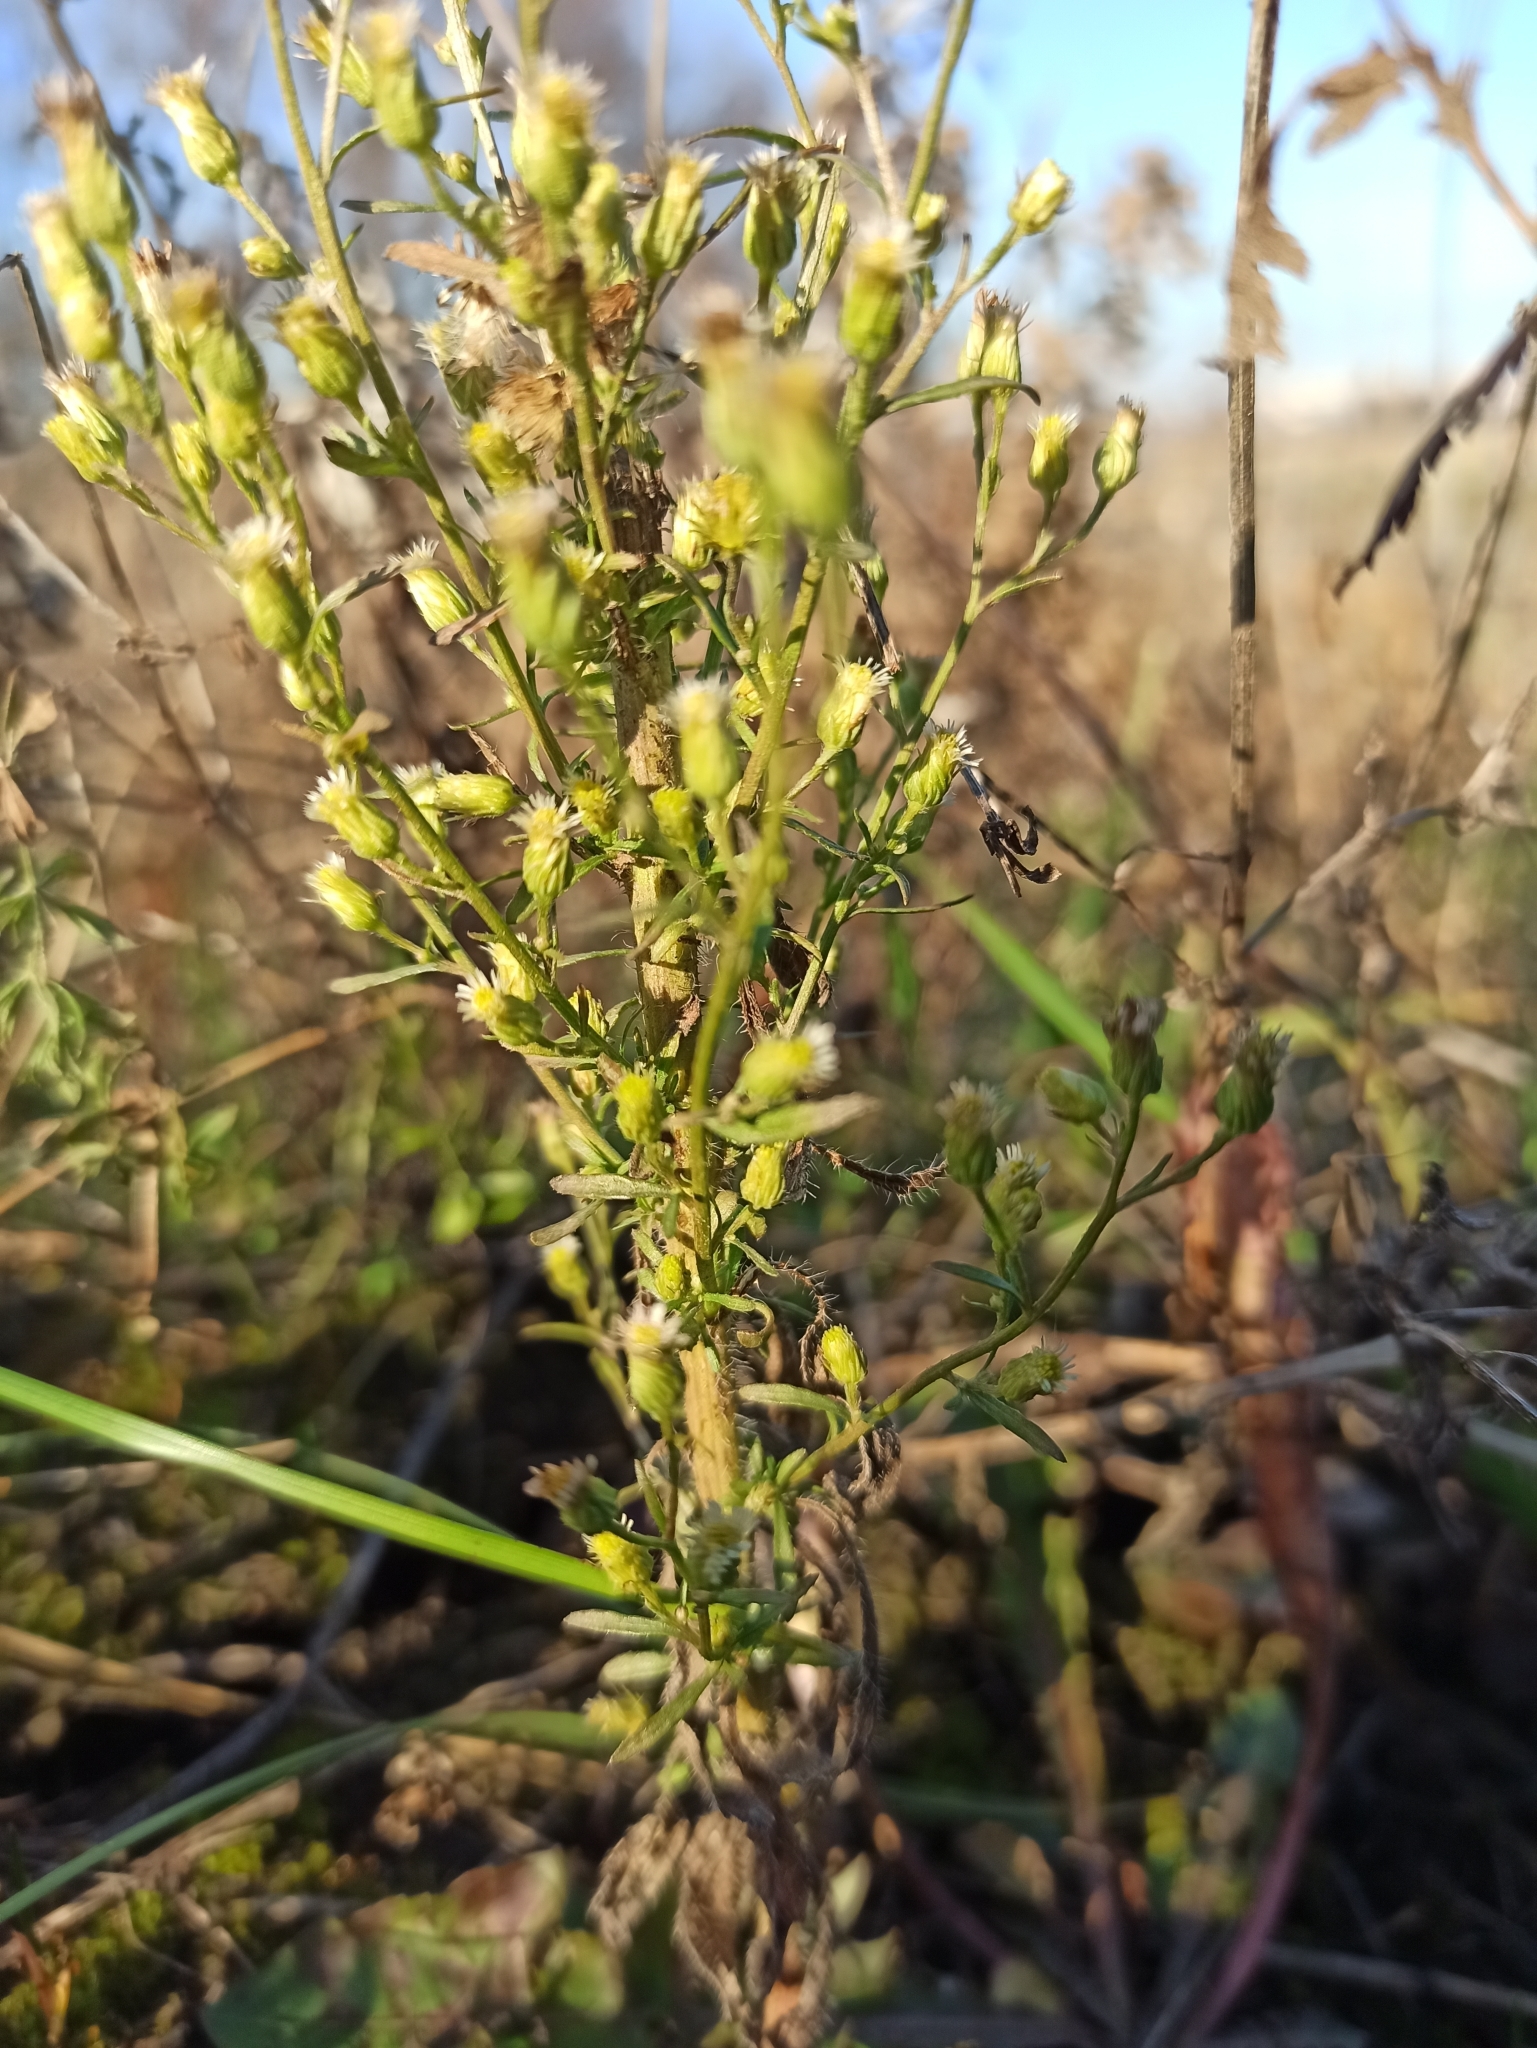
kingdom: Plantae
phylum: Tracheophyta
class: Magnoliopsida
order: Asterales
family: Asteraceae
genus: Erigeron
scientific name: Erigeron canadensis
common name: Canadian fleabane
